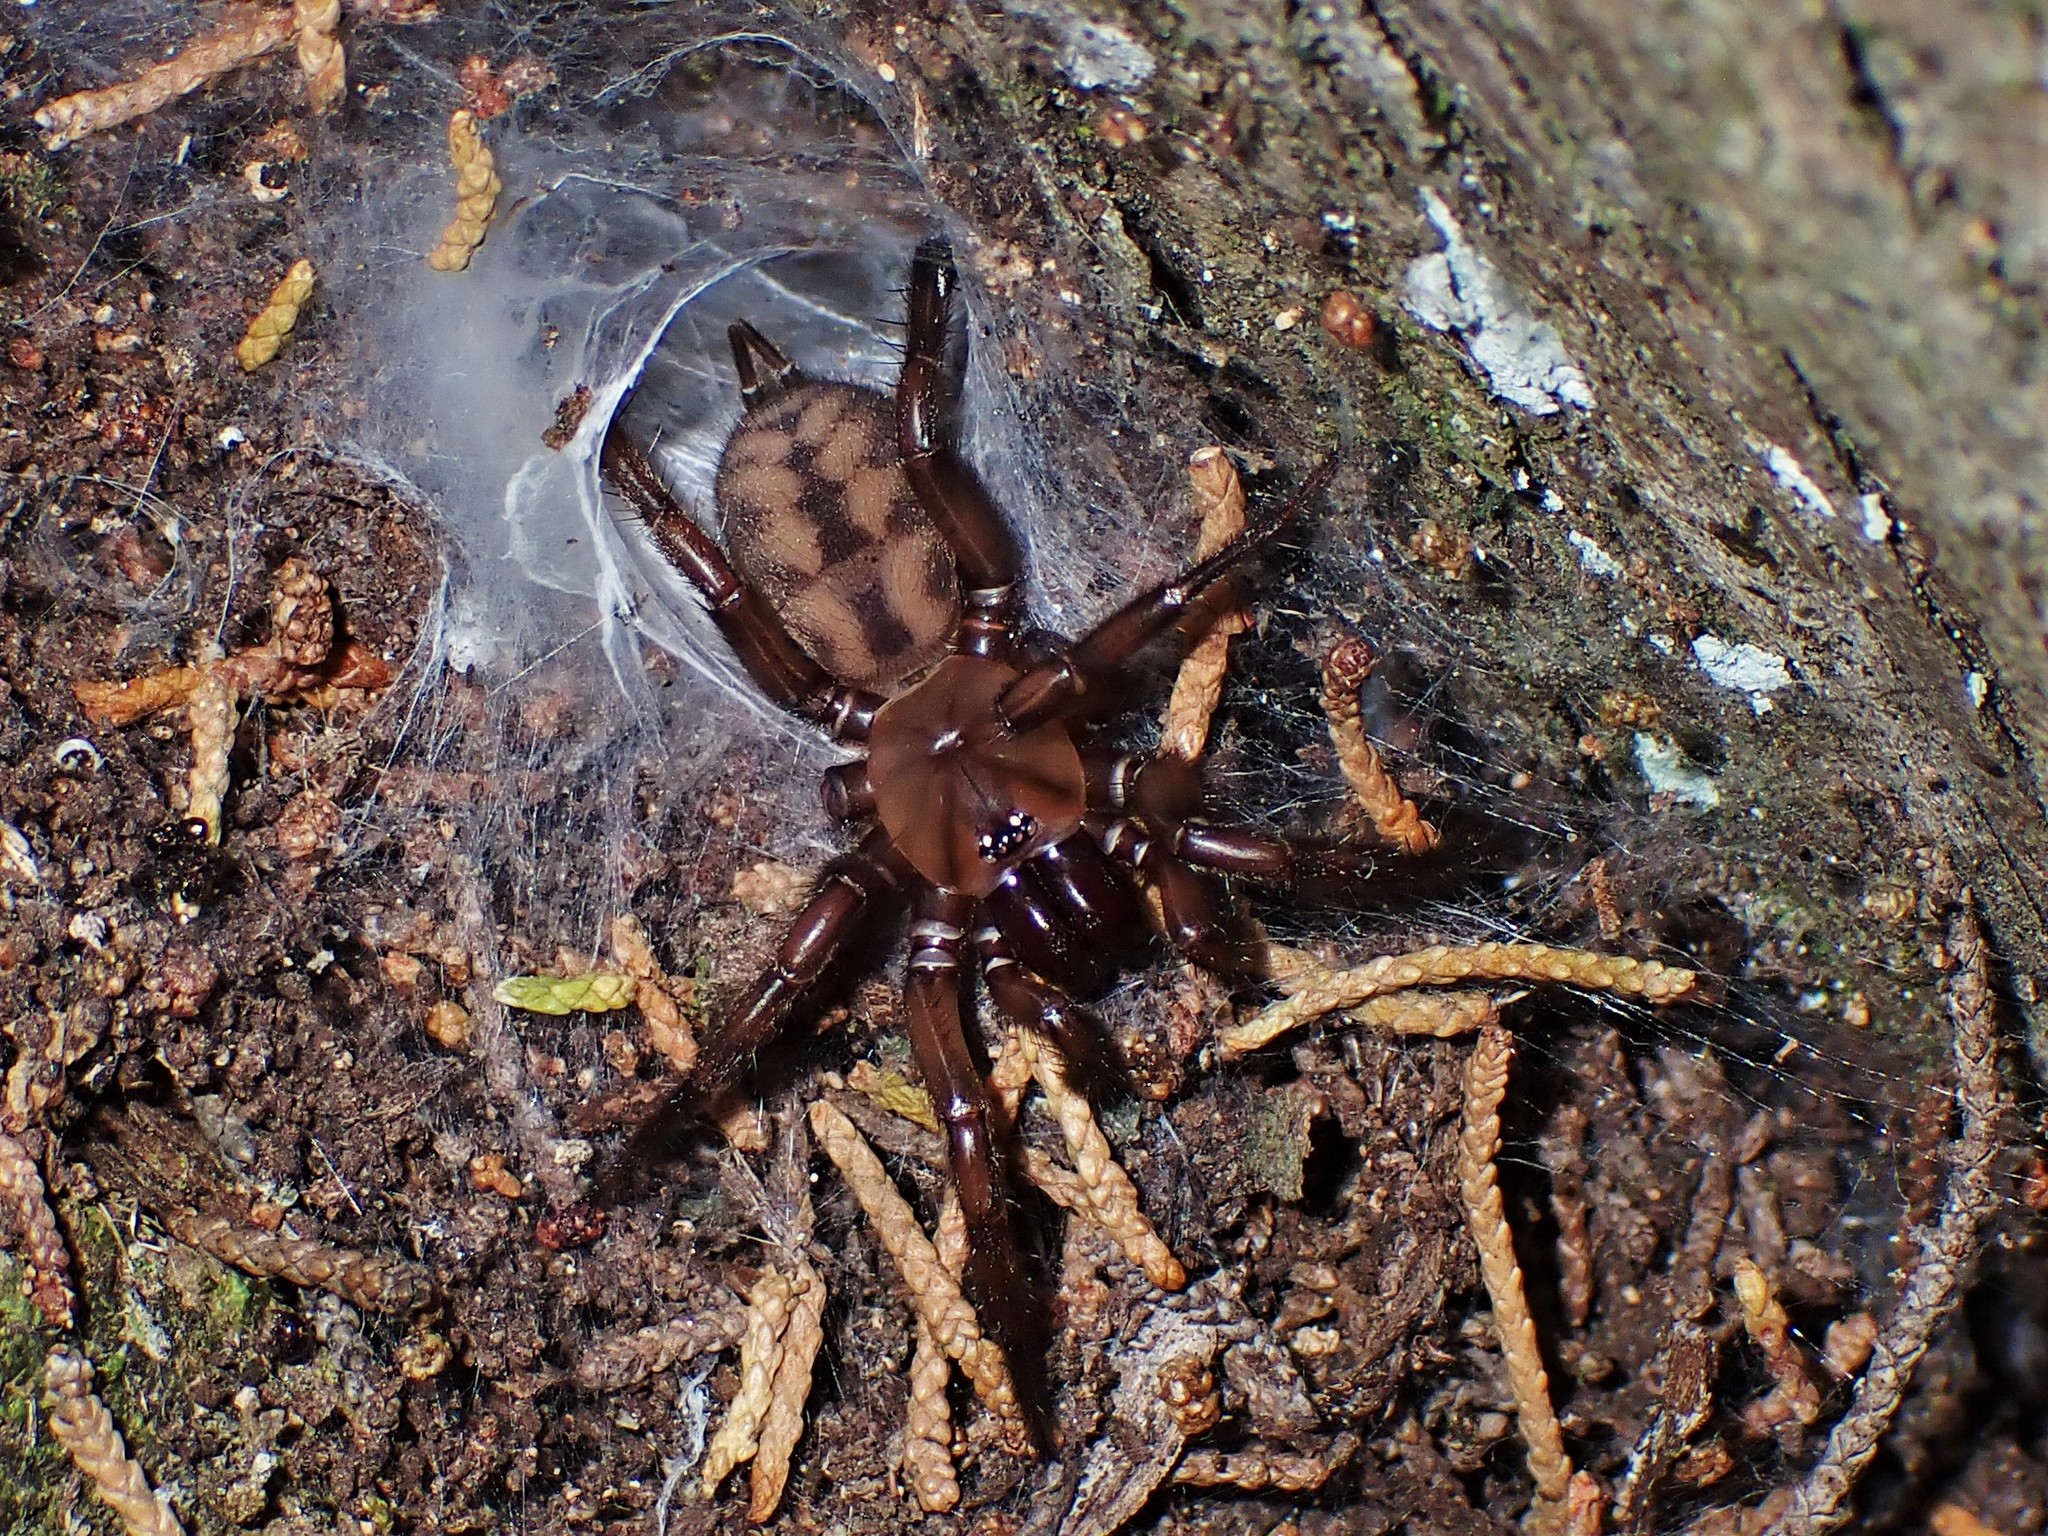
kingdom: Animalia
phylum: Arthropoda
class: Arachnida
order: Araneae
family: Hexathelidae
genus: Hexathele
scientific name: Hexathele
